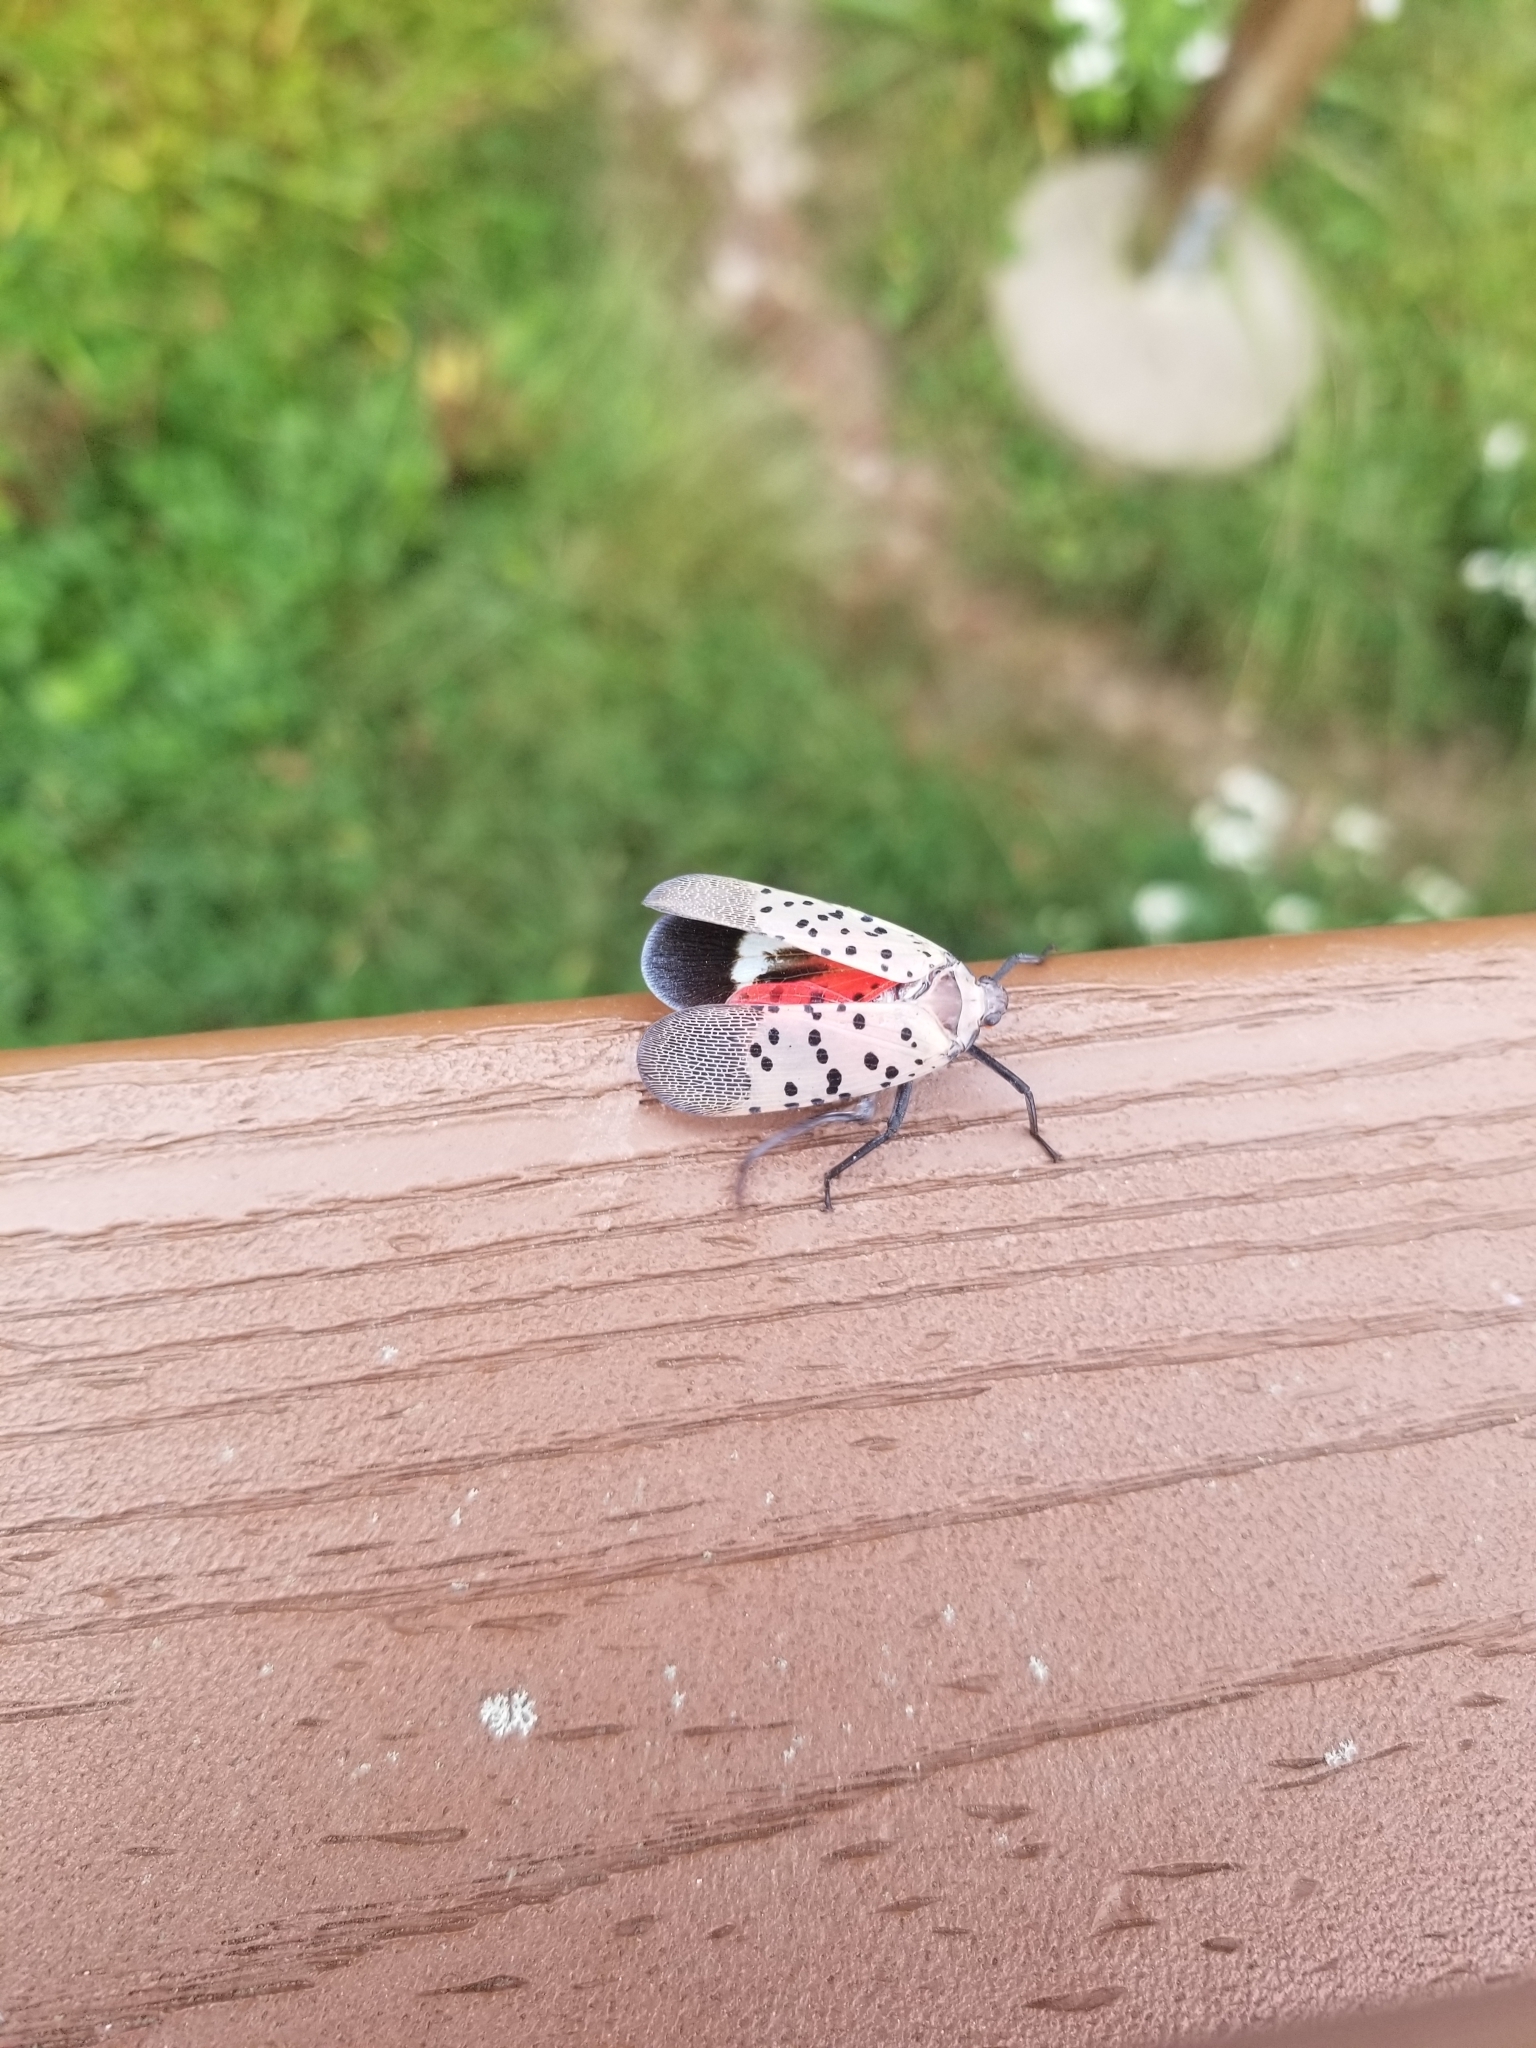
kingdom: Animalia
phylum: Arthropoda
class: Insecta
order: Hemiptera
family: Fulgoridae
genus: Lycorma
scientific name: Lycorma delicatula
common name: Spotted lanternfly
